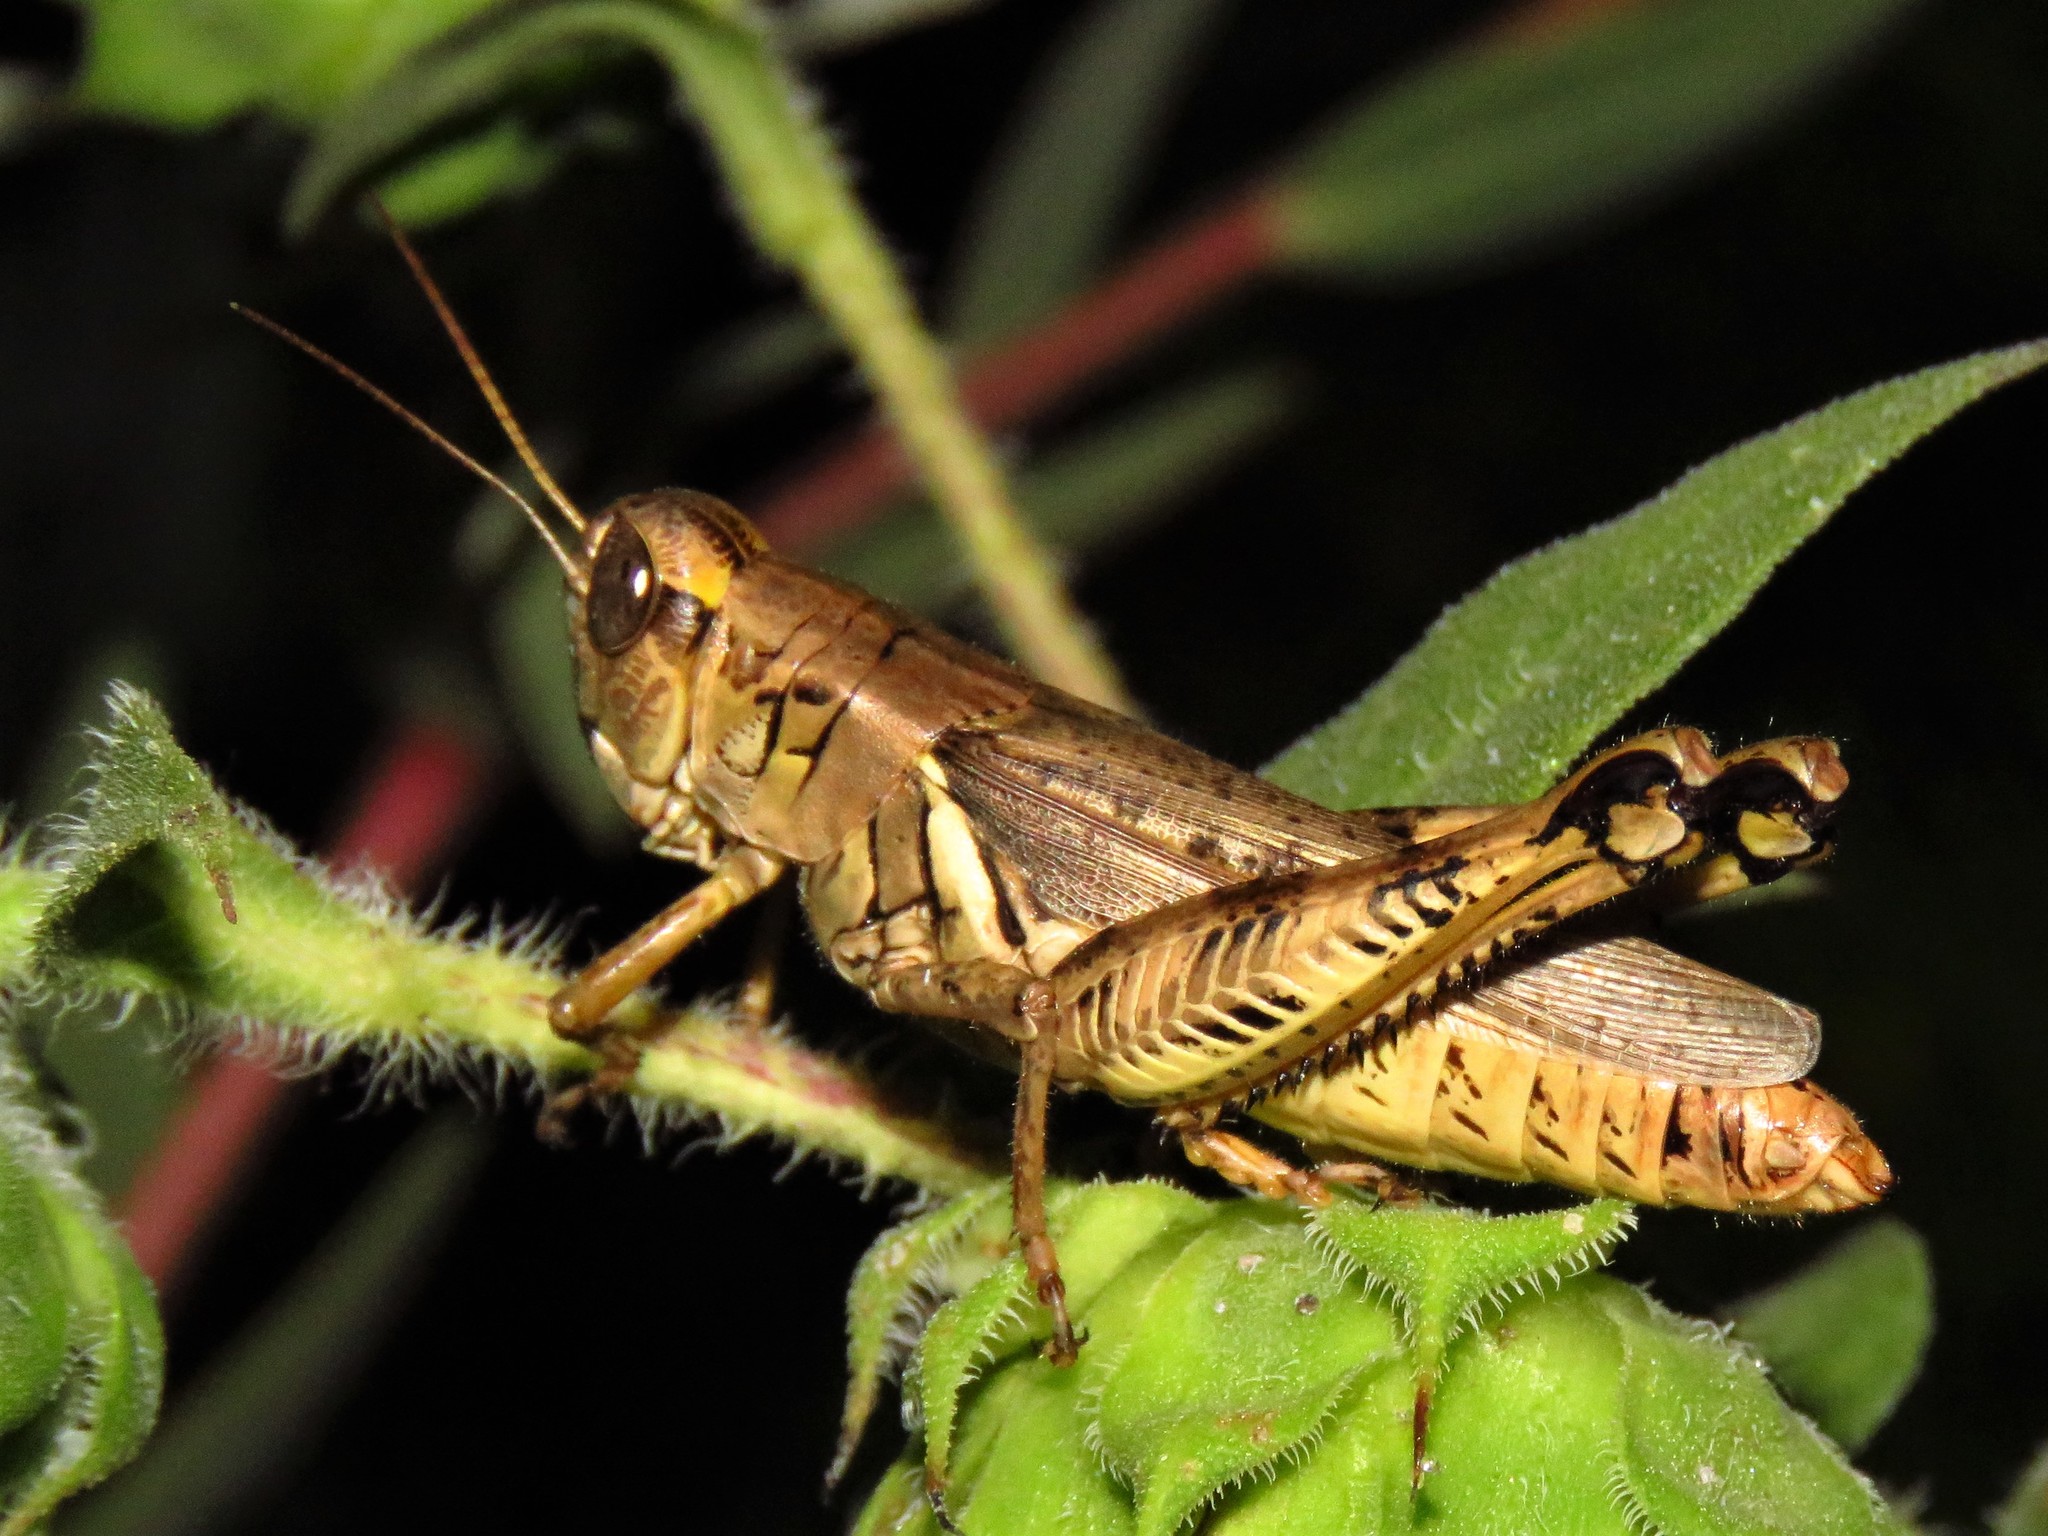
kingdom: Animalia
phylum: Arthropoda
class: Insecta
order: Orthoptera
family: Acrididae
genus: Melanoplus
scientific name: Melanoplus differentialis
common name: Differential grasshopper
